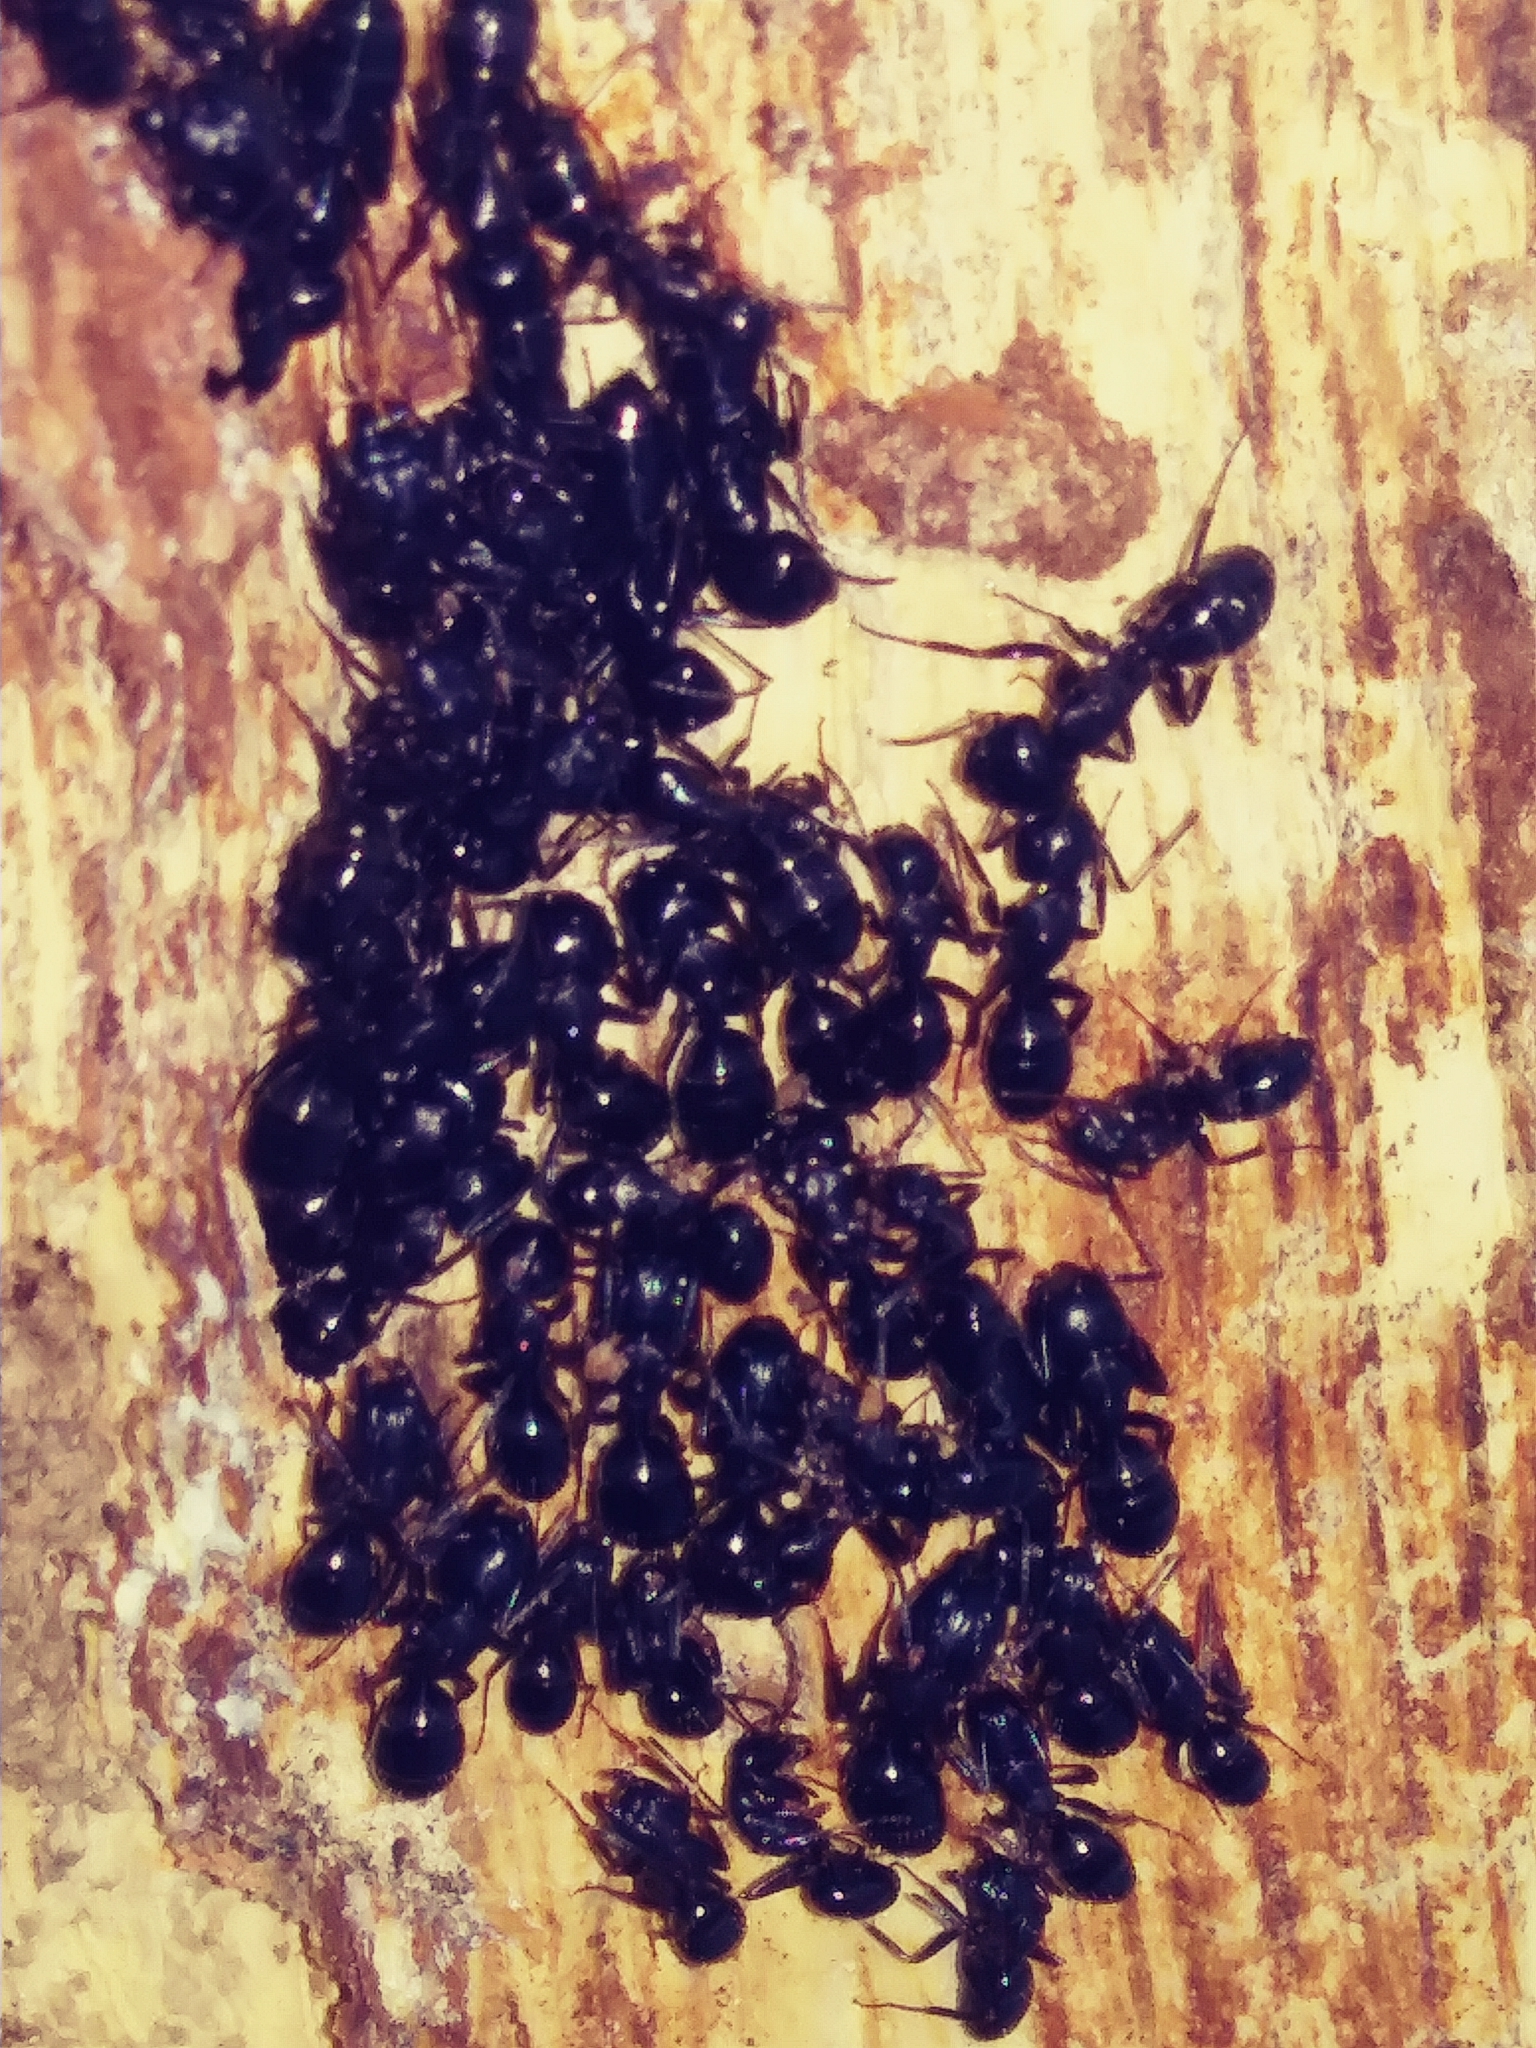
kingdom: Animalia
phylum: Arthropoda
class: Insecta
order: Hymenoptera
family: Formicidae
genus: Camponotus
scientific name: Camponotus pennsylvanicus
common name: Black carpenter ant
